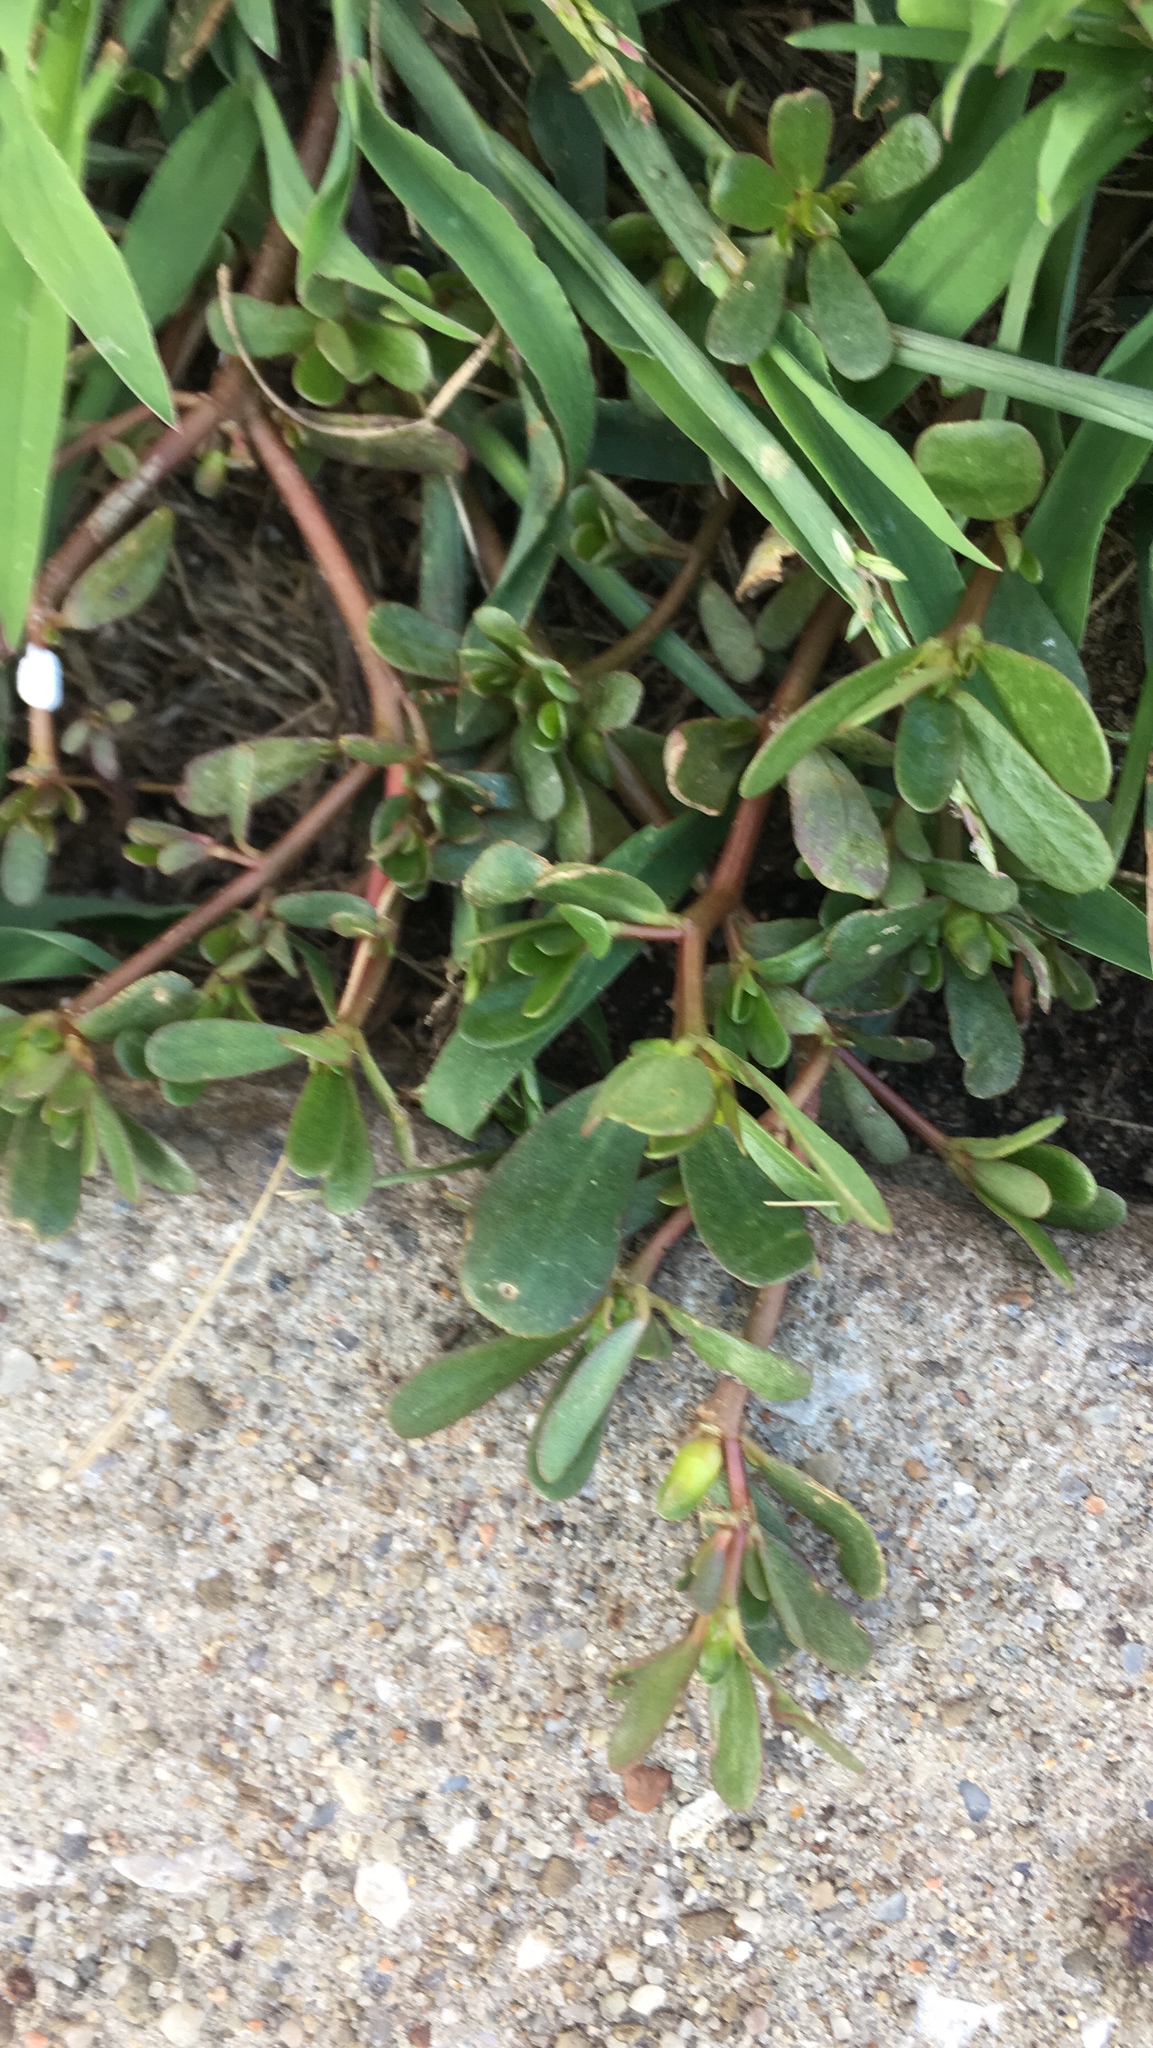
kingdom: Plantae
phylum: Tracheophyta
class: Magnoliopsida
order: Caryophyllales
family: Portulacaceae
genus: Portulaca
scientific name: Portulaca oleracea
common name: Common purslane
